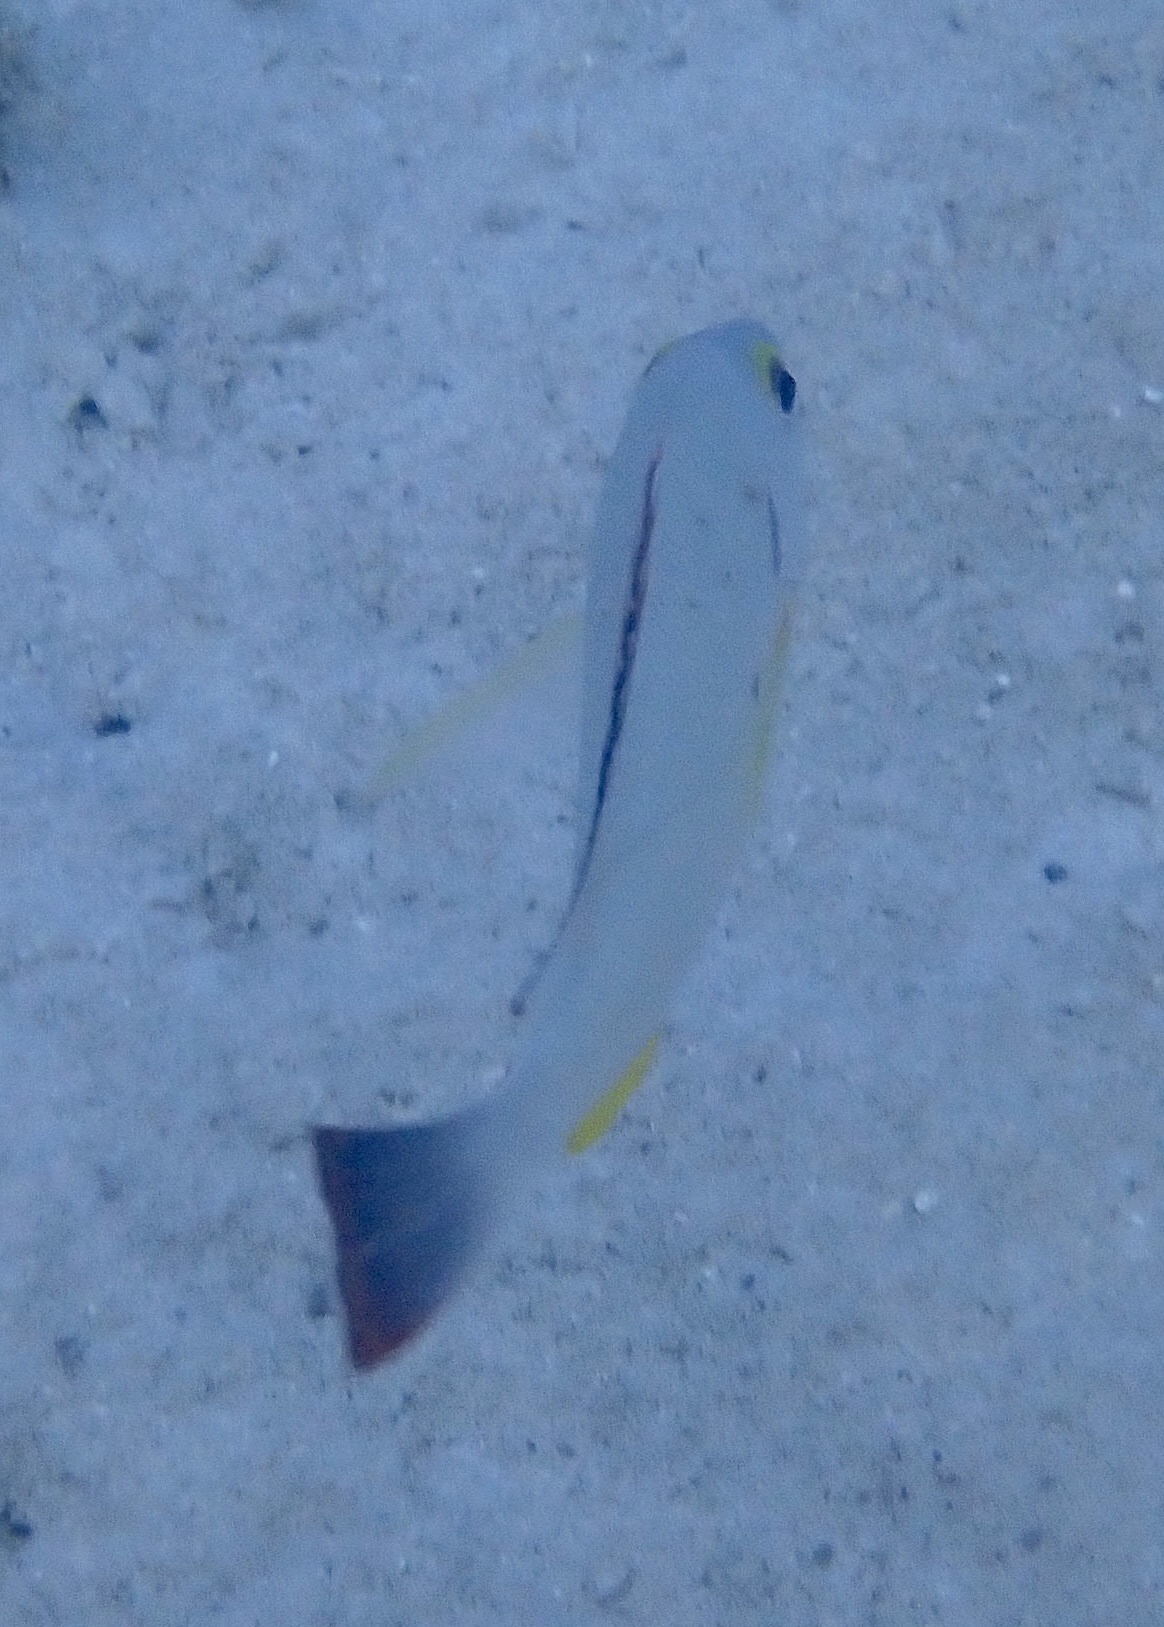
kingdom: Animalia
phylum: Chordata
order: Perciformes
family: Lutjanidae
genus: Lutjanus
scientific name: Lutjanus fulvus
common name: Blacktail snapper
